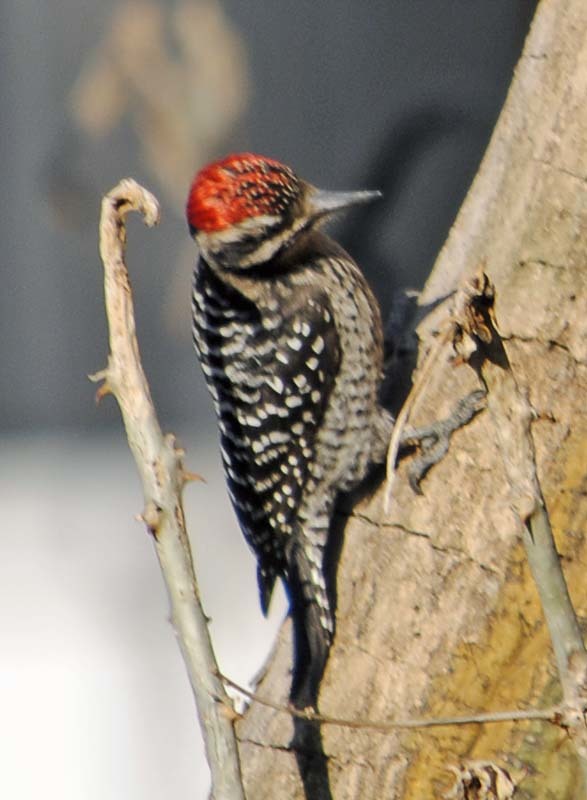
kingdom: Animalia
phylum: Chordata
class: Aves
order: Piciformes
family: Picidae
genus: Dryobates
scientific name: Dryobates scalaris
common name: Ladder-backed woodpecker
